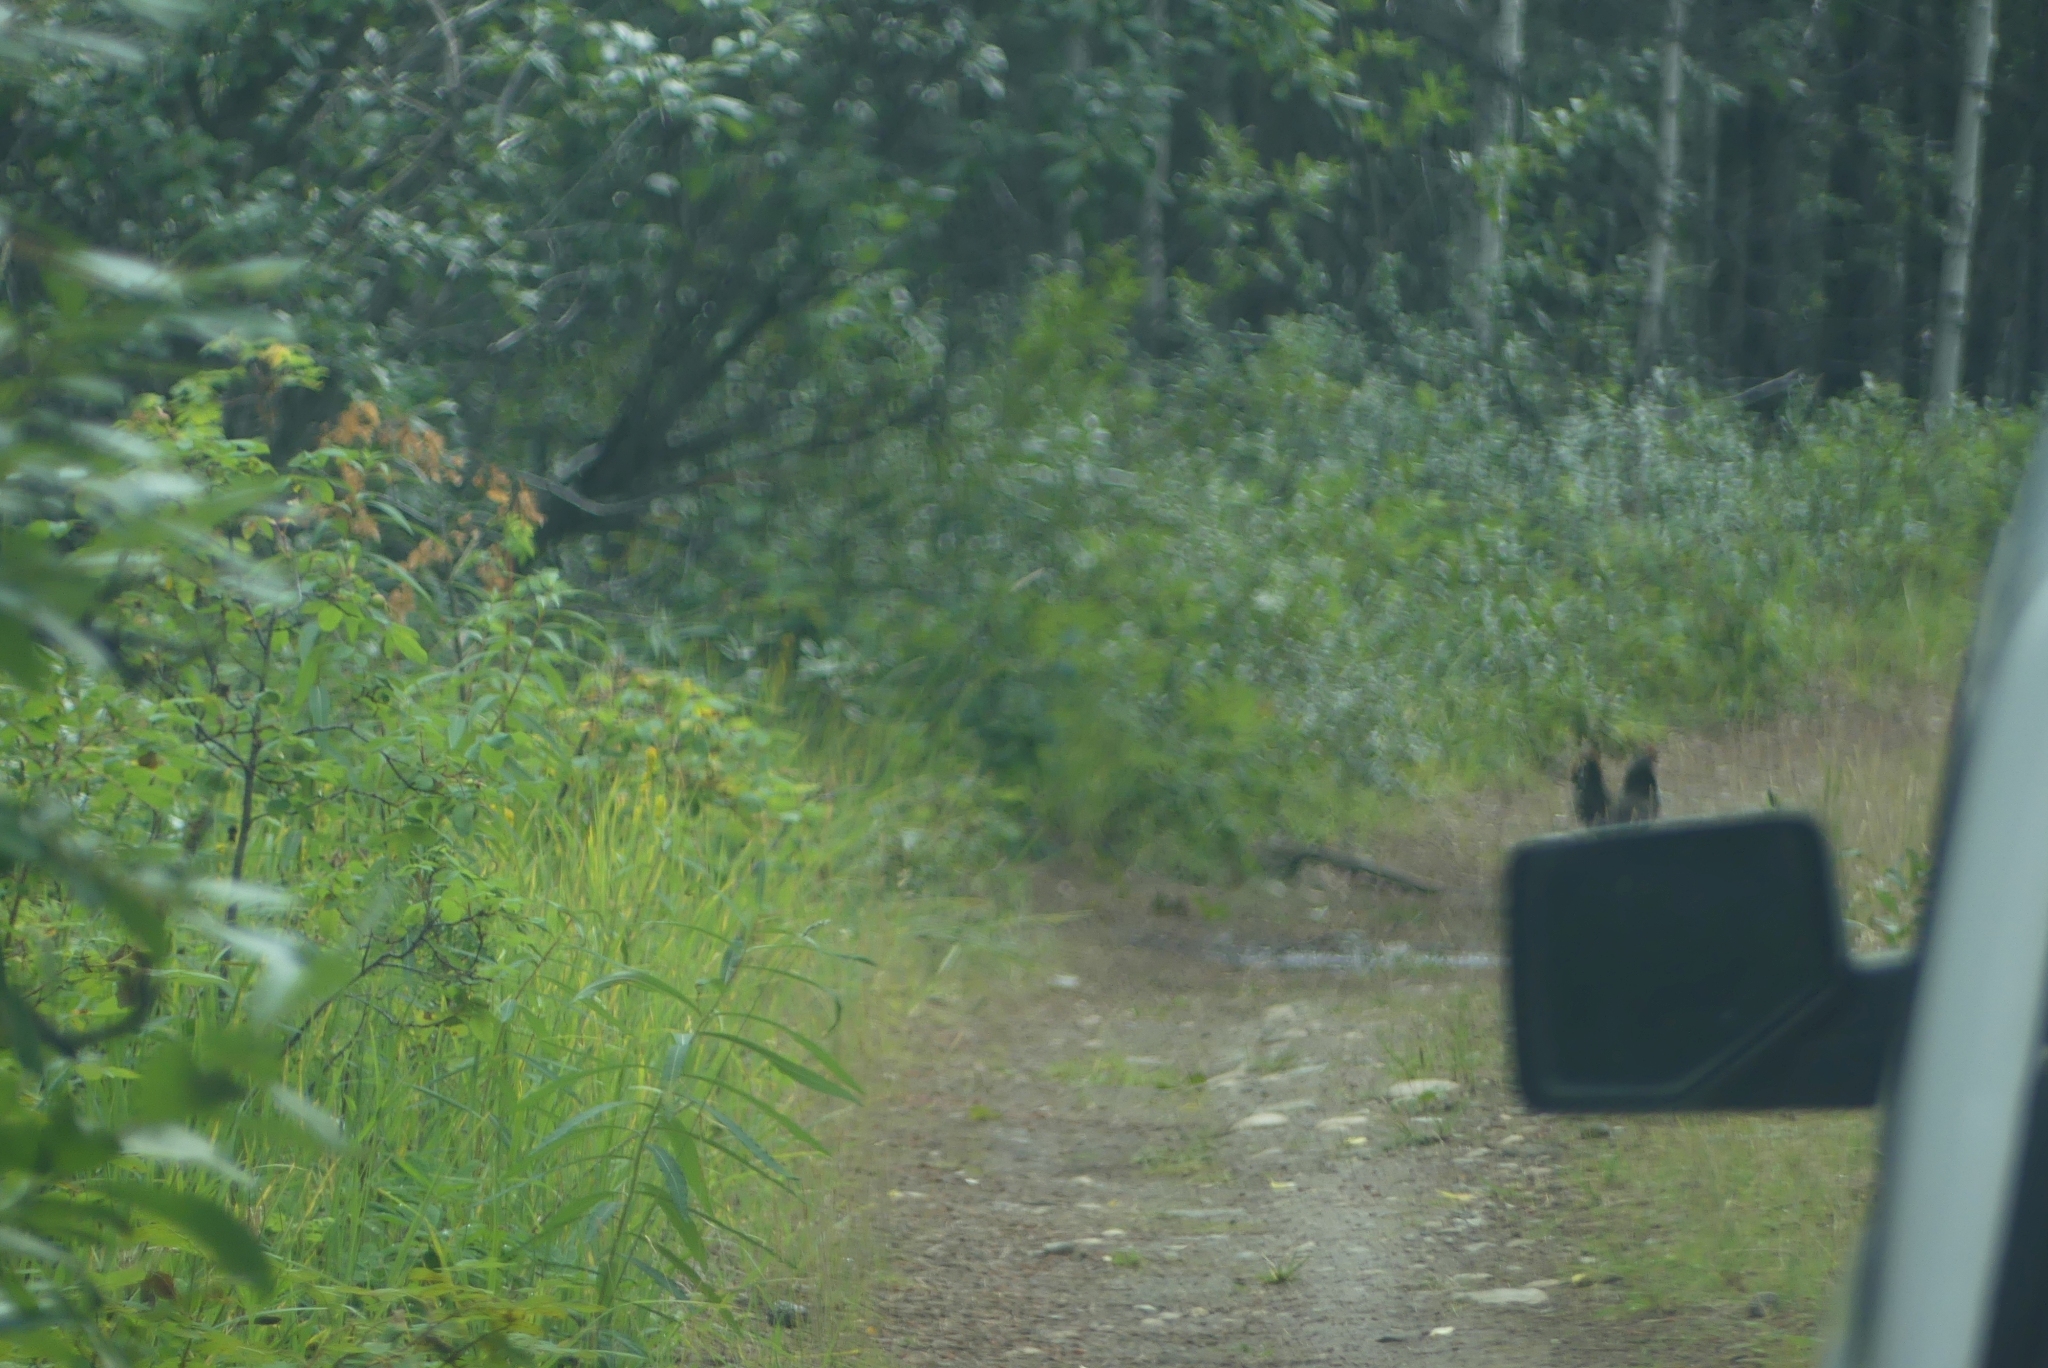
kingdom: Animalia
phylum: Chordata
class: Aves
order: Galliformes
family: Phasianidae
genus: Bonasa
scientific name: Bonasa umbellus
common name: Ruffed grouse
